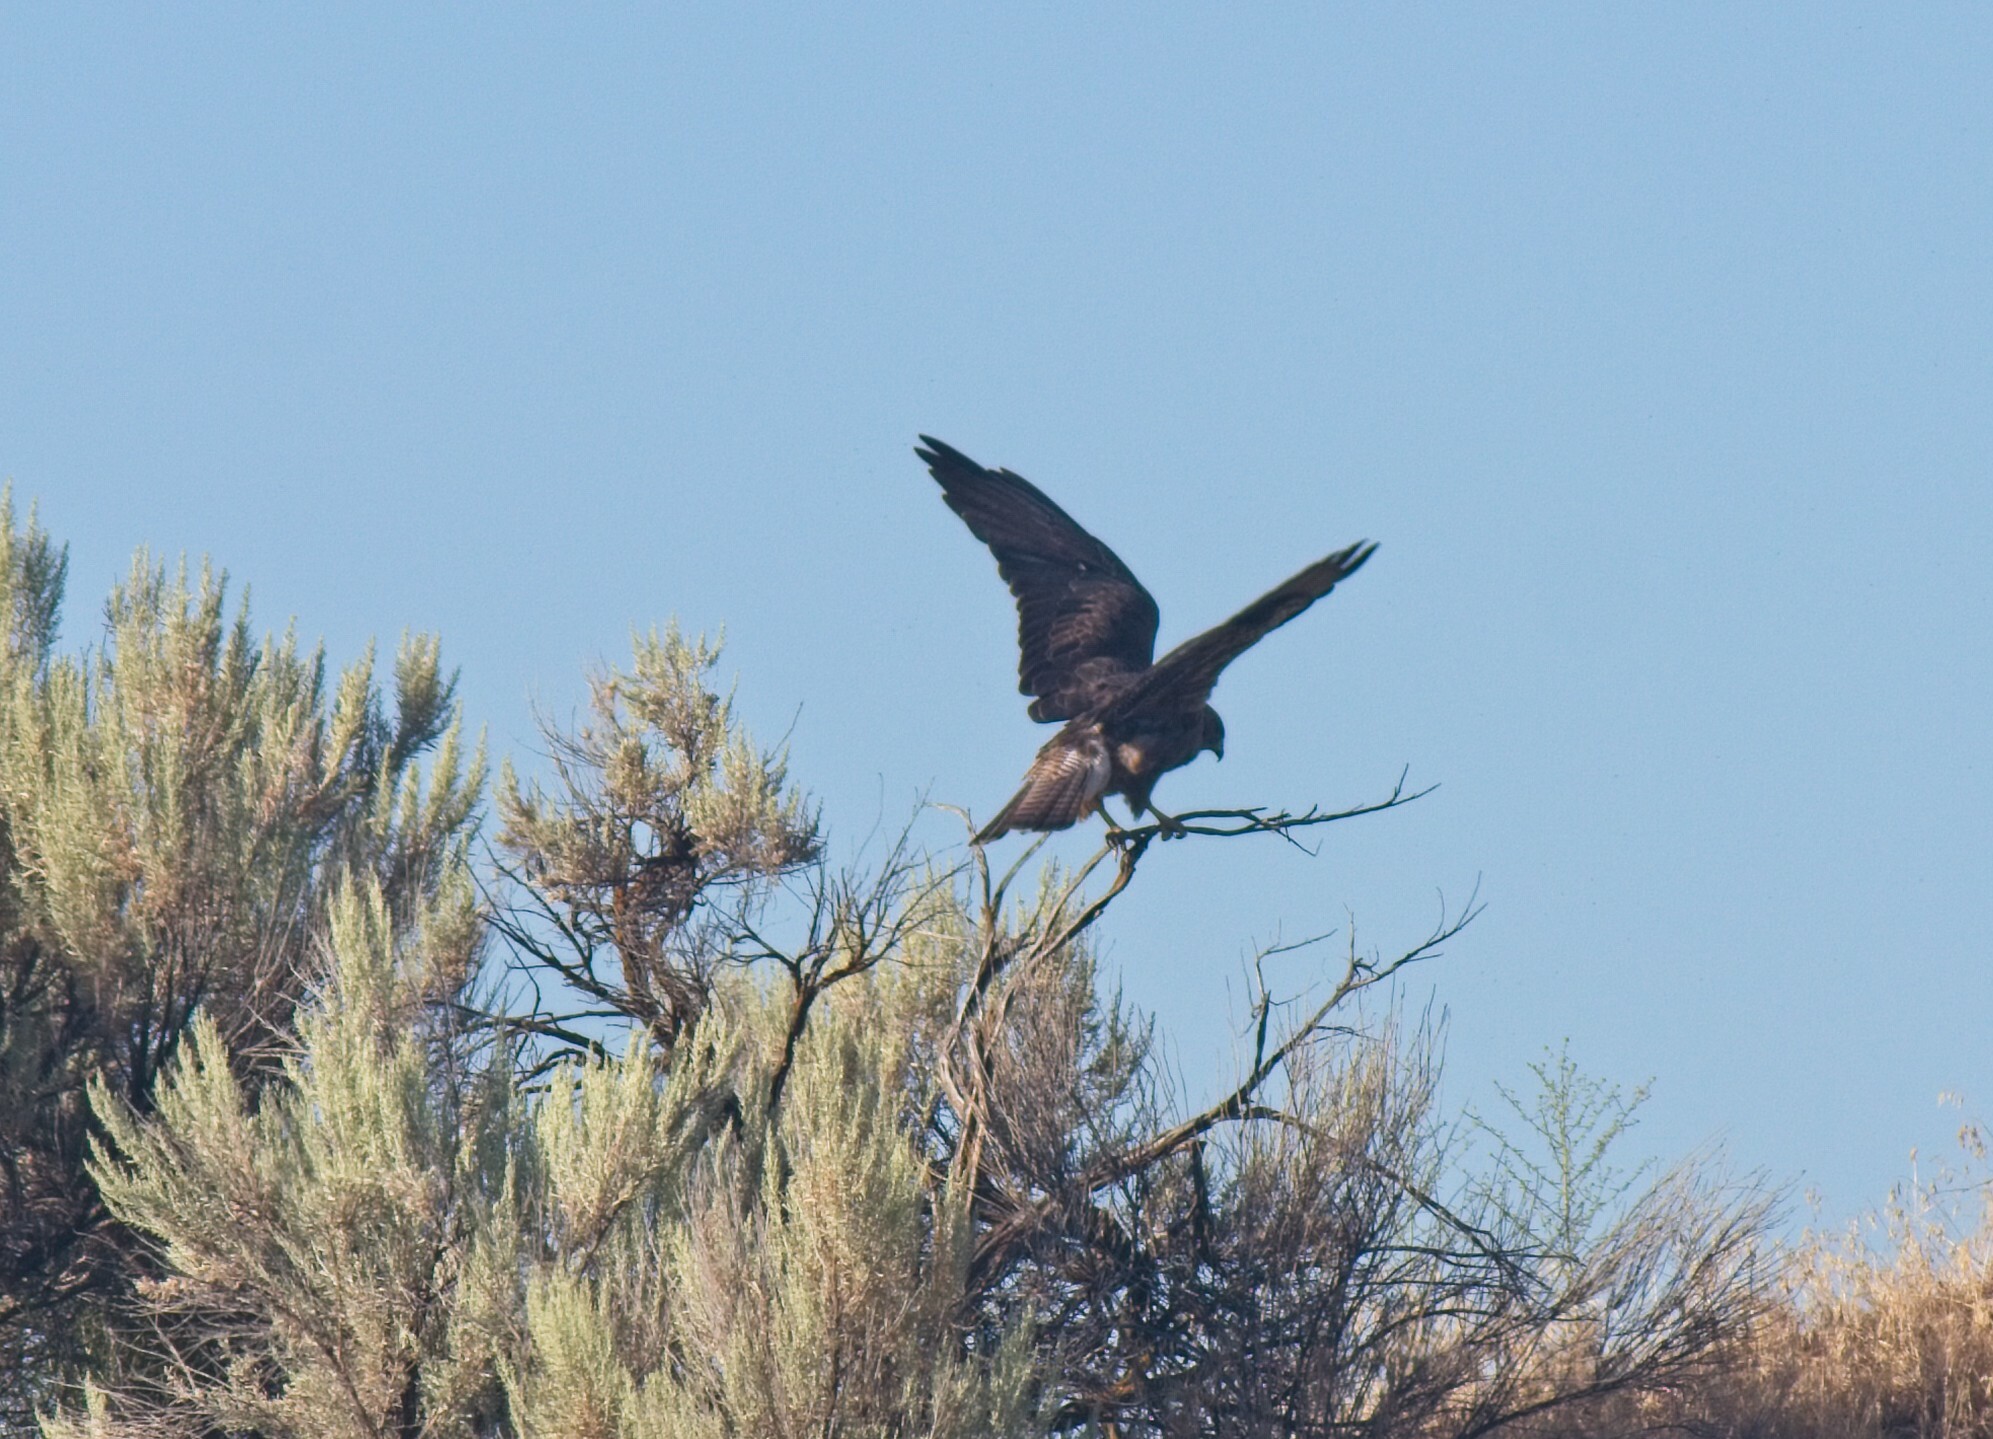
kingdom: Animalia
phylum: Chordata
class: Aves
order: Accipitriformes
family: Accipitridae
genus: Buteo
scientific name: Buteo swainsoni
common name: Swainson's hawk
